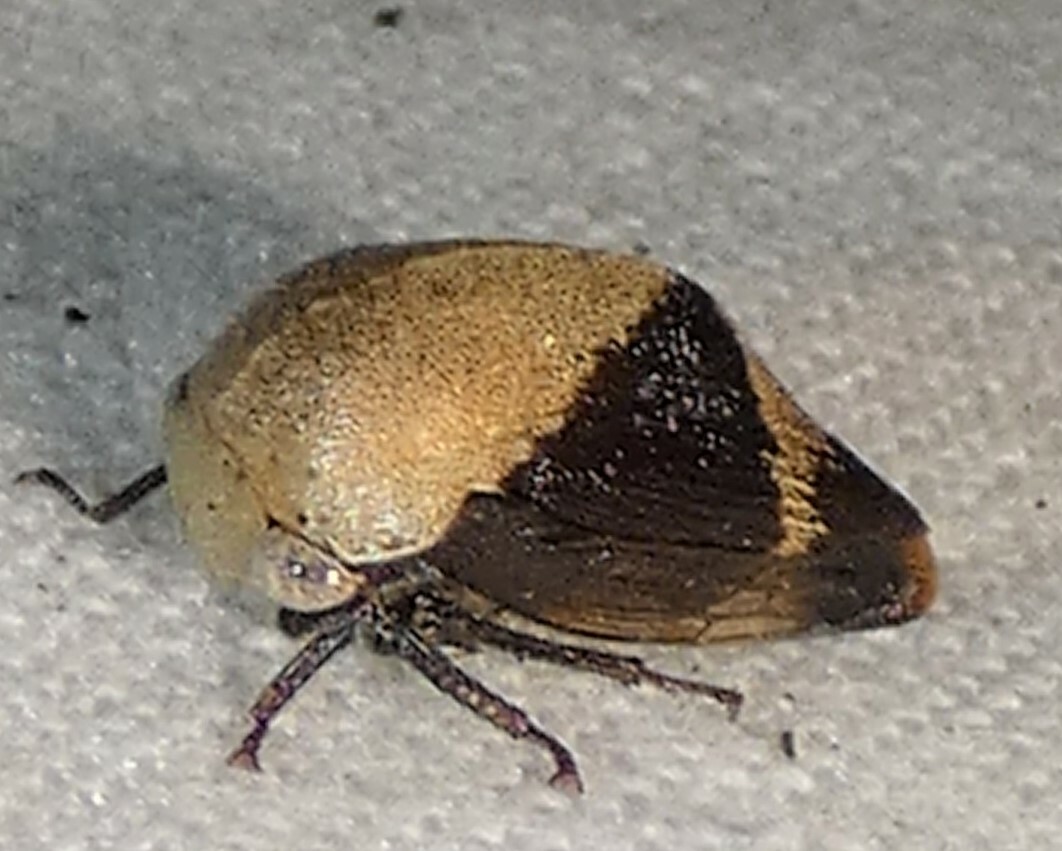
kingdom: Animalia
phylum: Arthropoda
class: Insecta
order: Hemiptera
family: Membracidae
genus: Carynota
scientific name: Carynota mera
